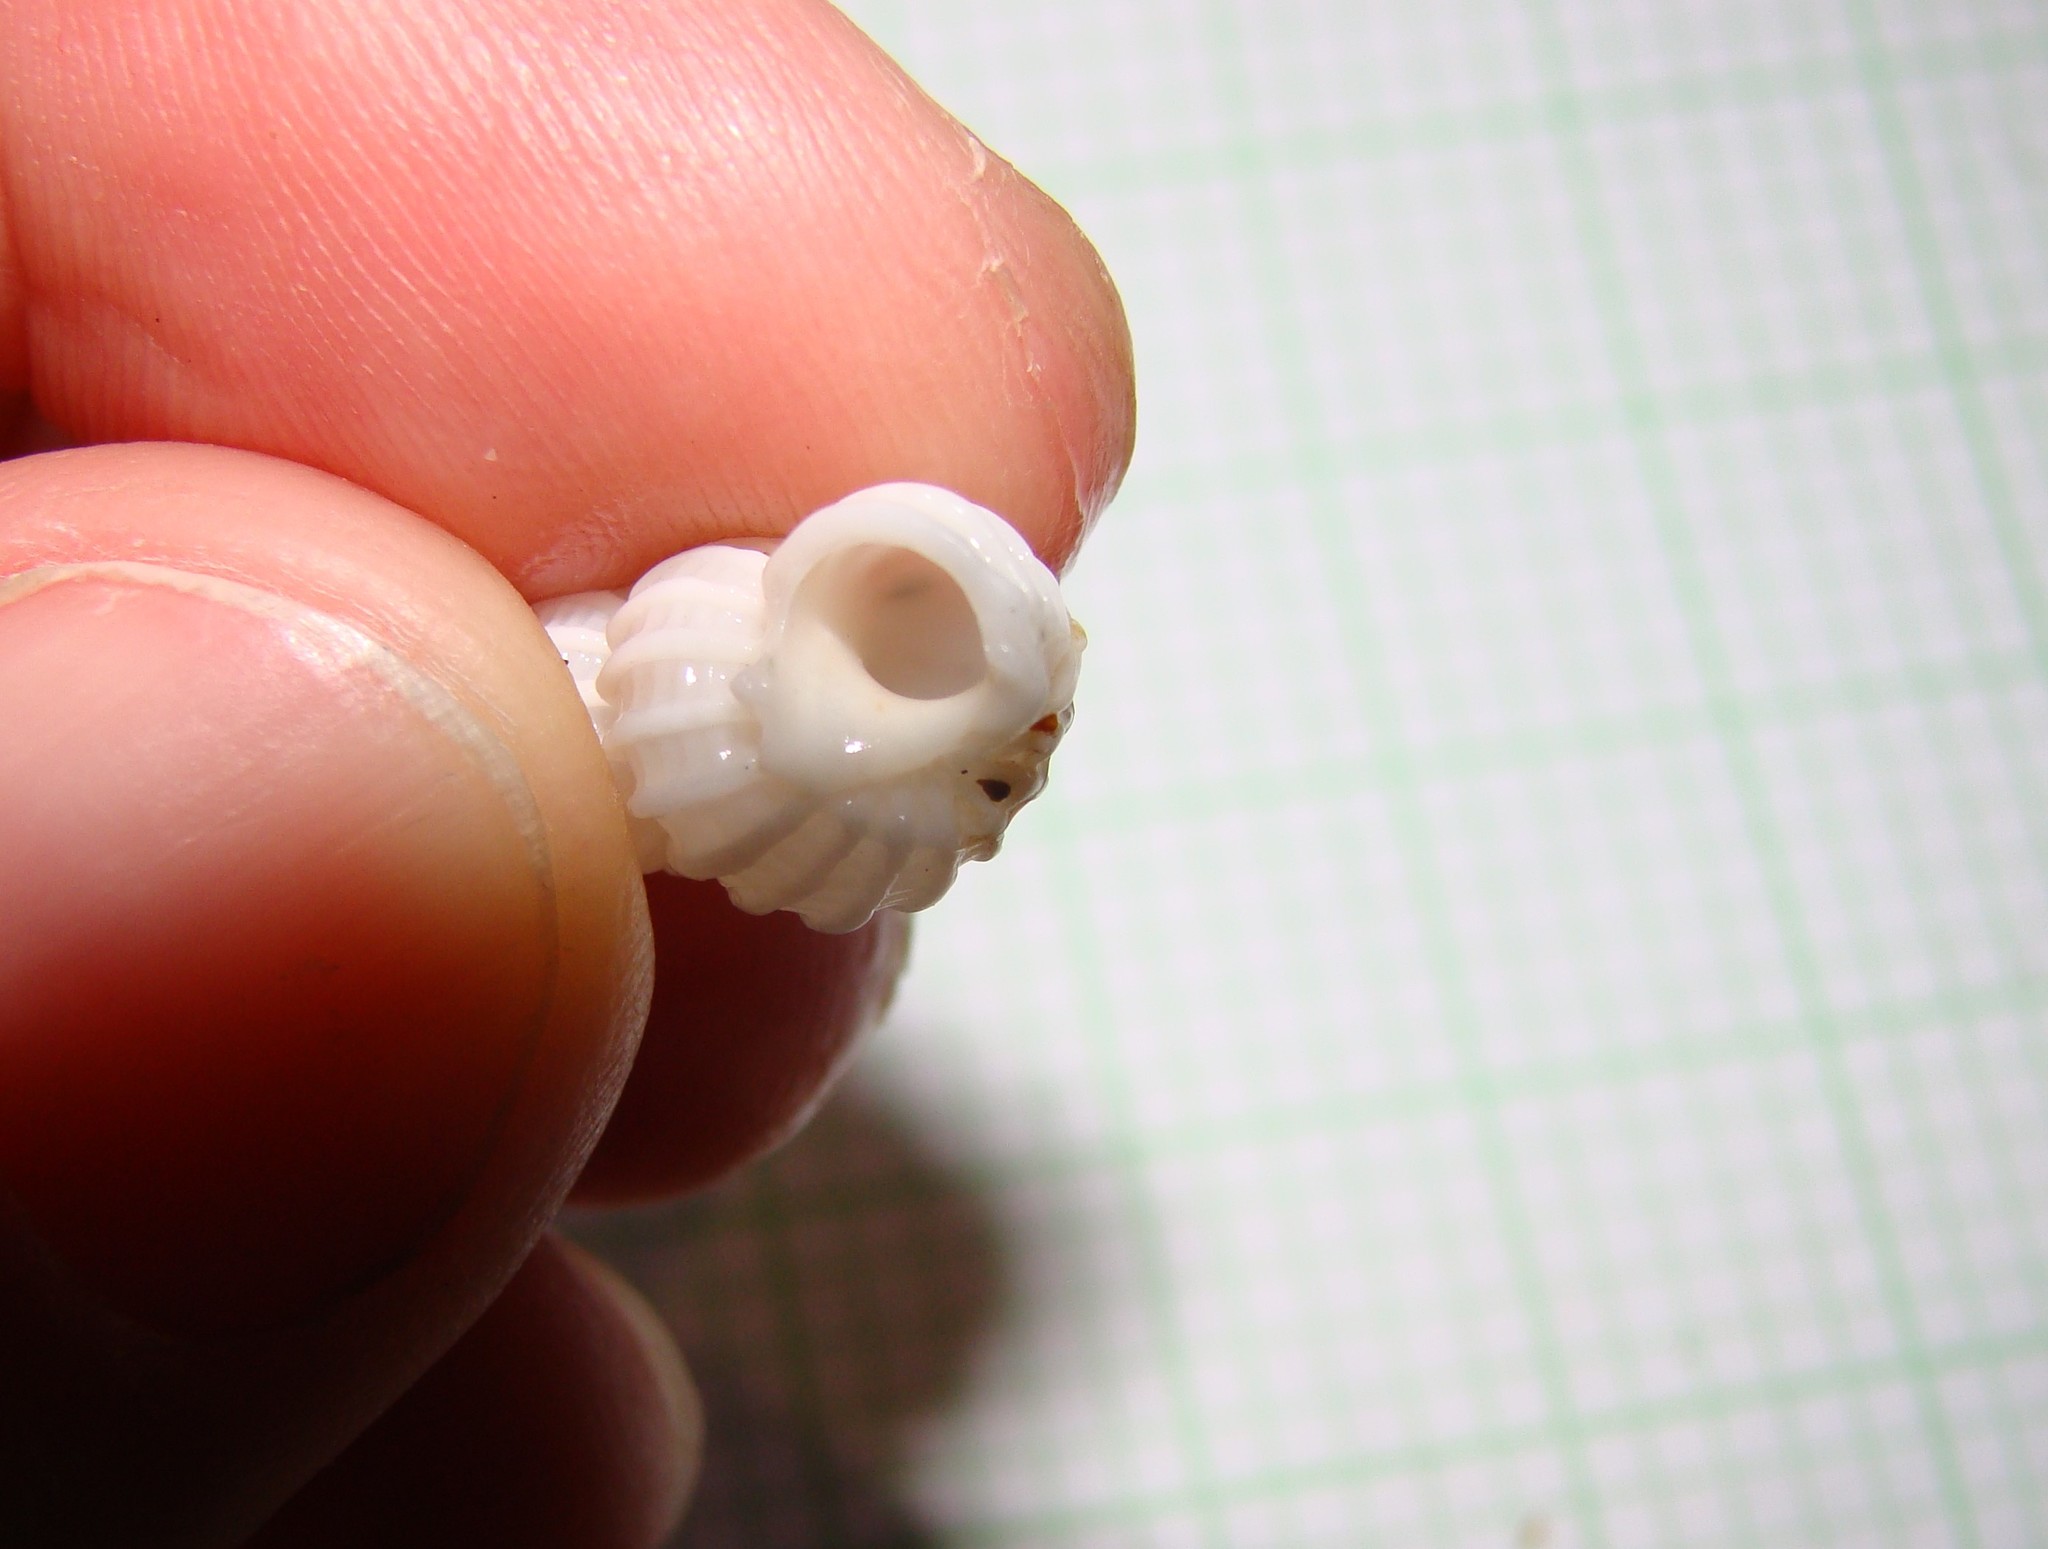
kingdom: Animalia
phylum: Mollusca
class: Gastropoda
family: Epitoniidae
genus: Cirsotrema
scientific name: Cirsotrema zelebori
